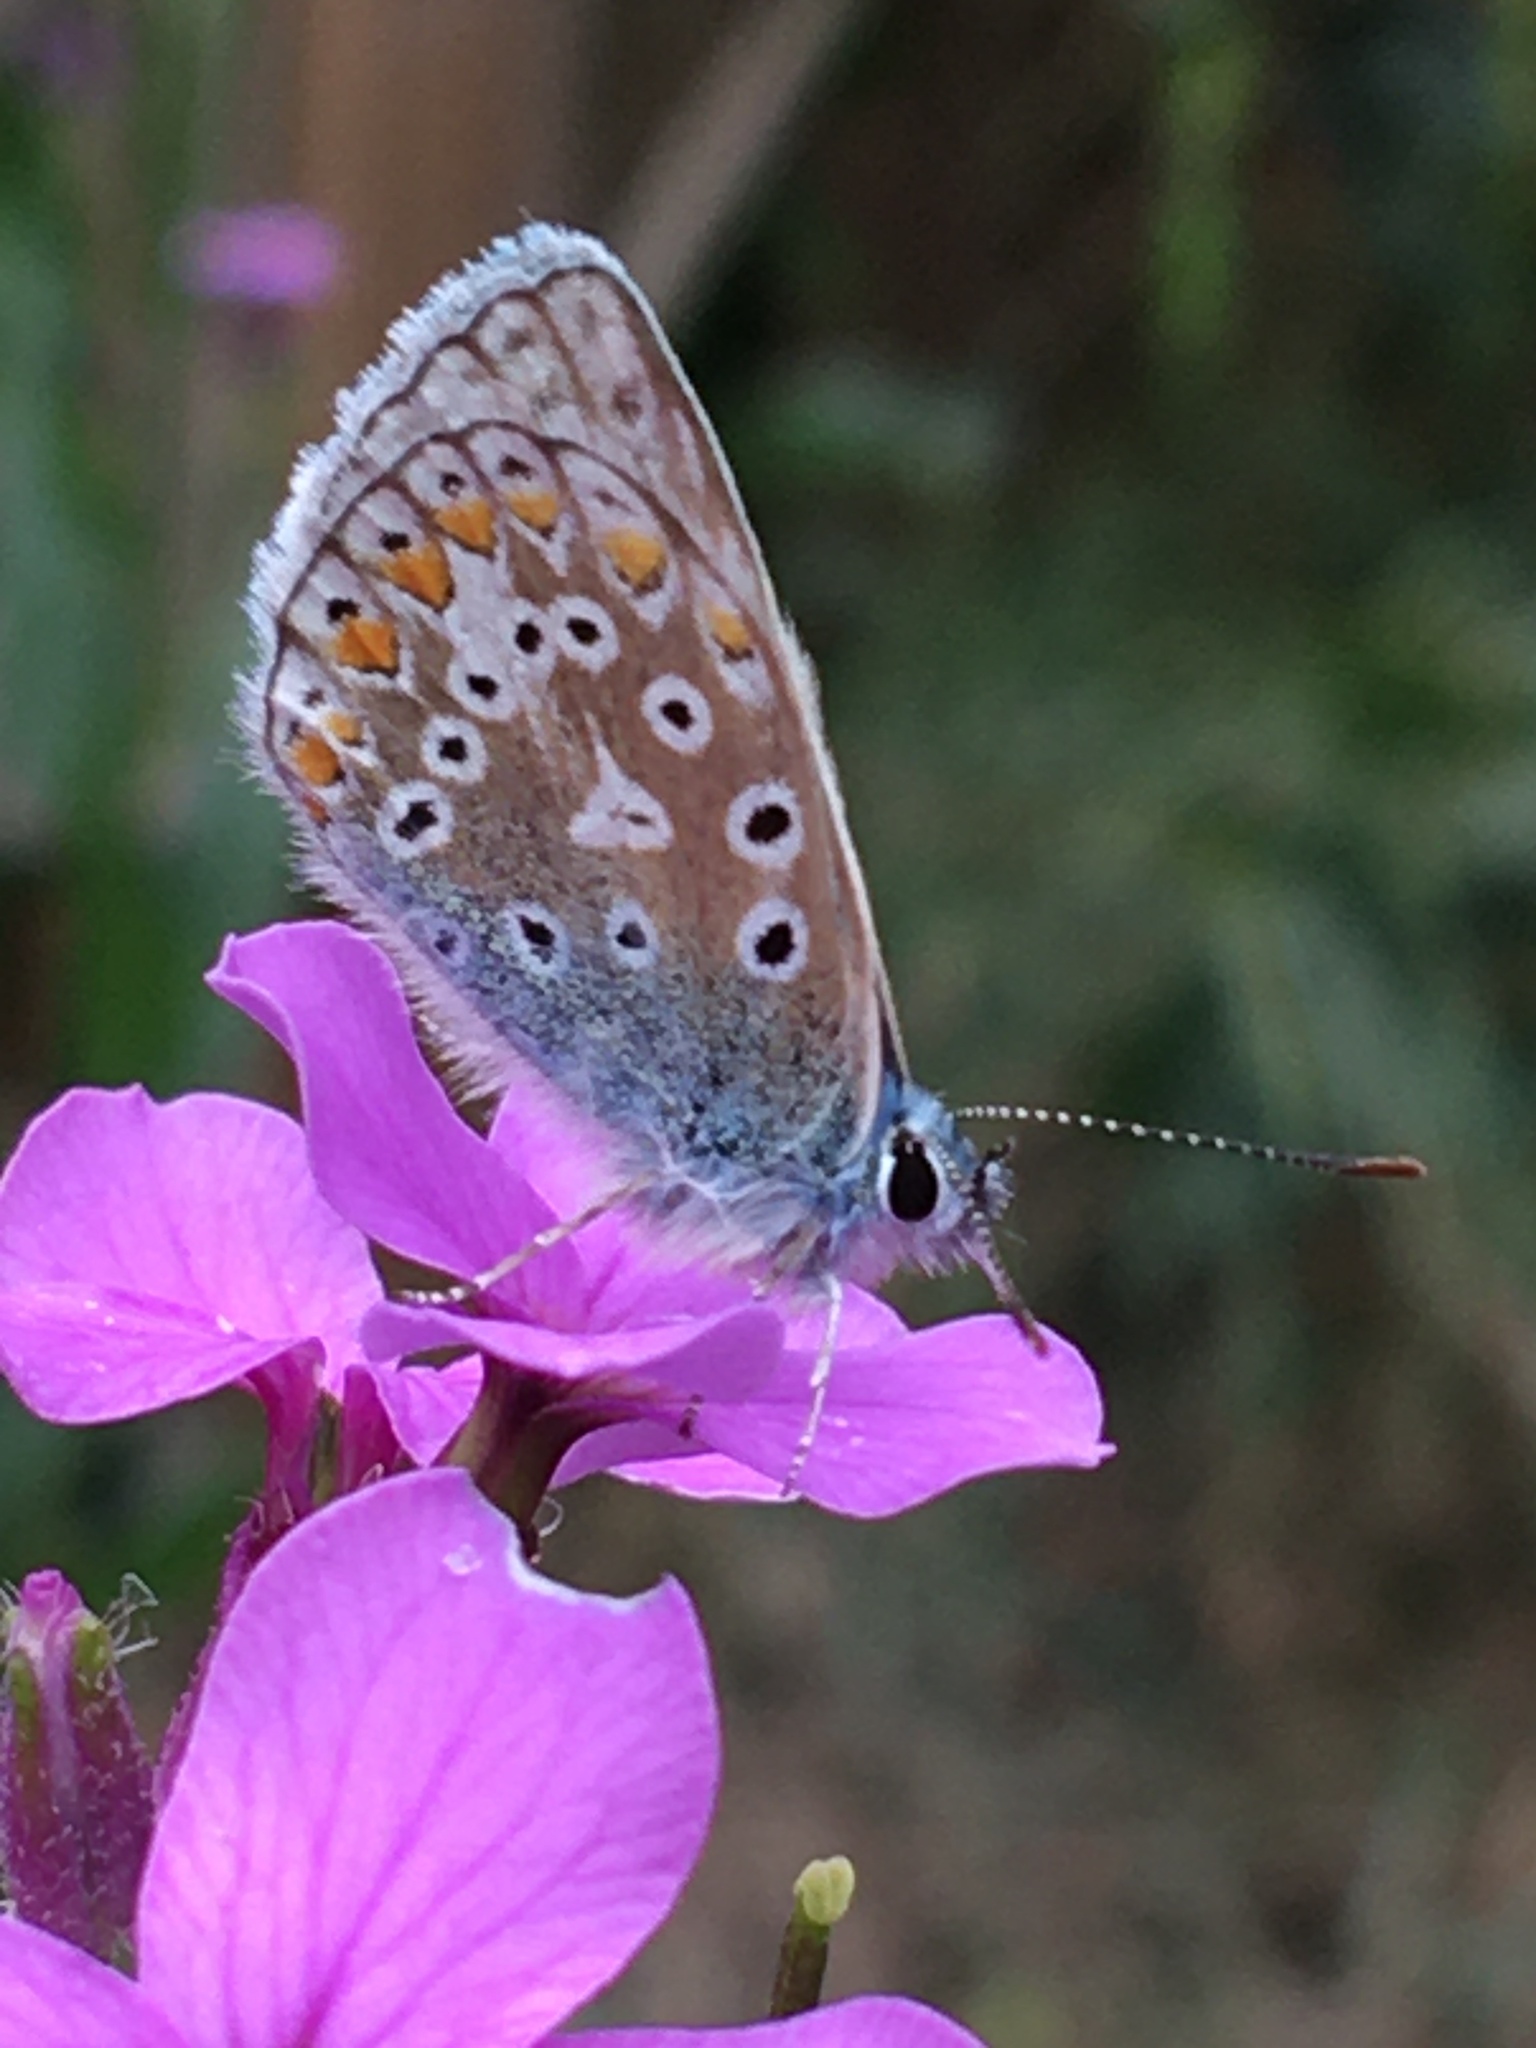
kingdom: Animalia
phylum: Arthropoda
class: Insecta
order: Lepidoptera
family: Lycaenidae
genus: Polyommatus
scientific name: Polyommatus icarus
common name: Common blue
